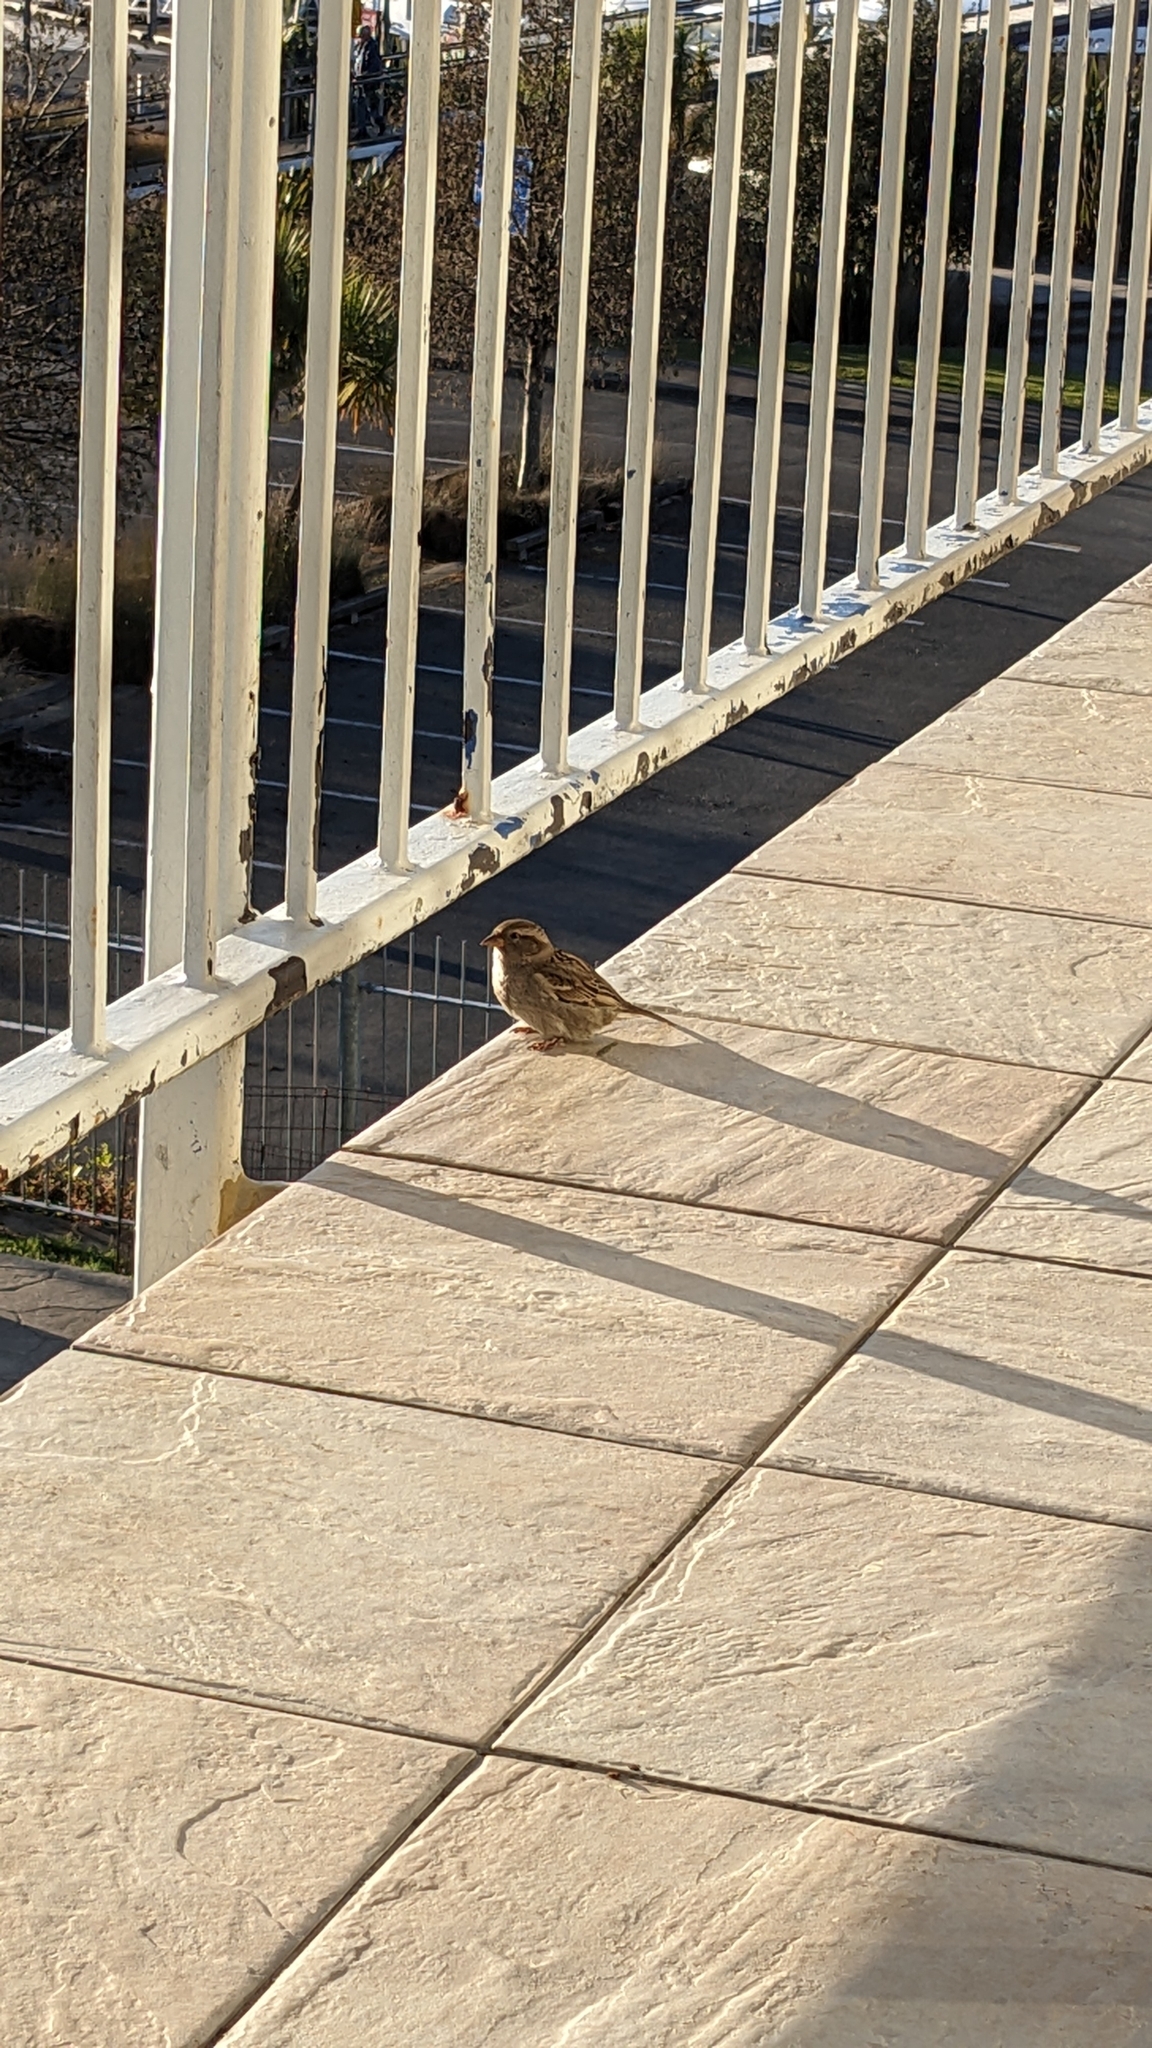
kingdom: Animalia
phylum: Chordata
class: Aves
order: Passeriformes
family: Passeridae
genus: Passer
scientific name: Passer domesticus
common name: House sparrow
